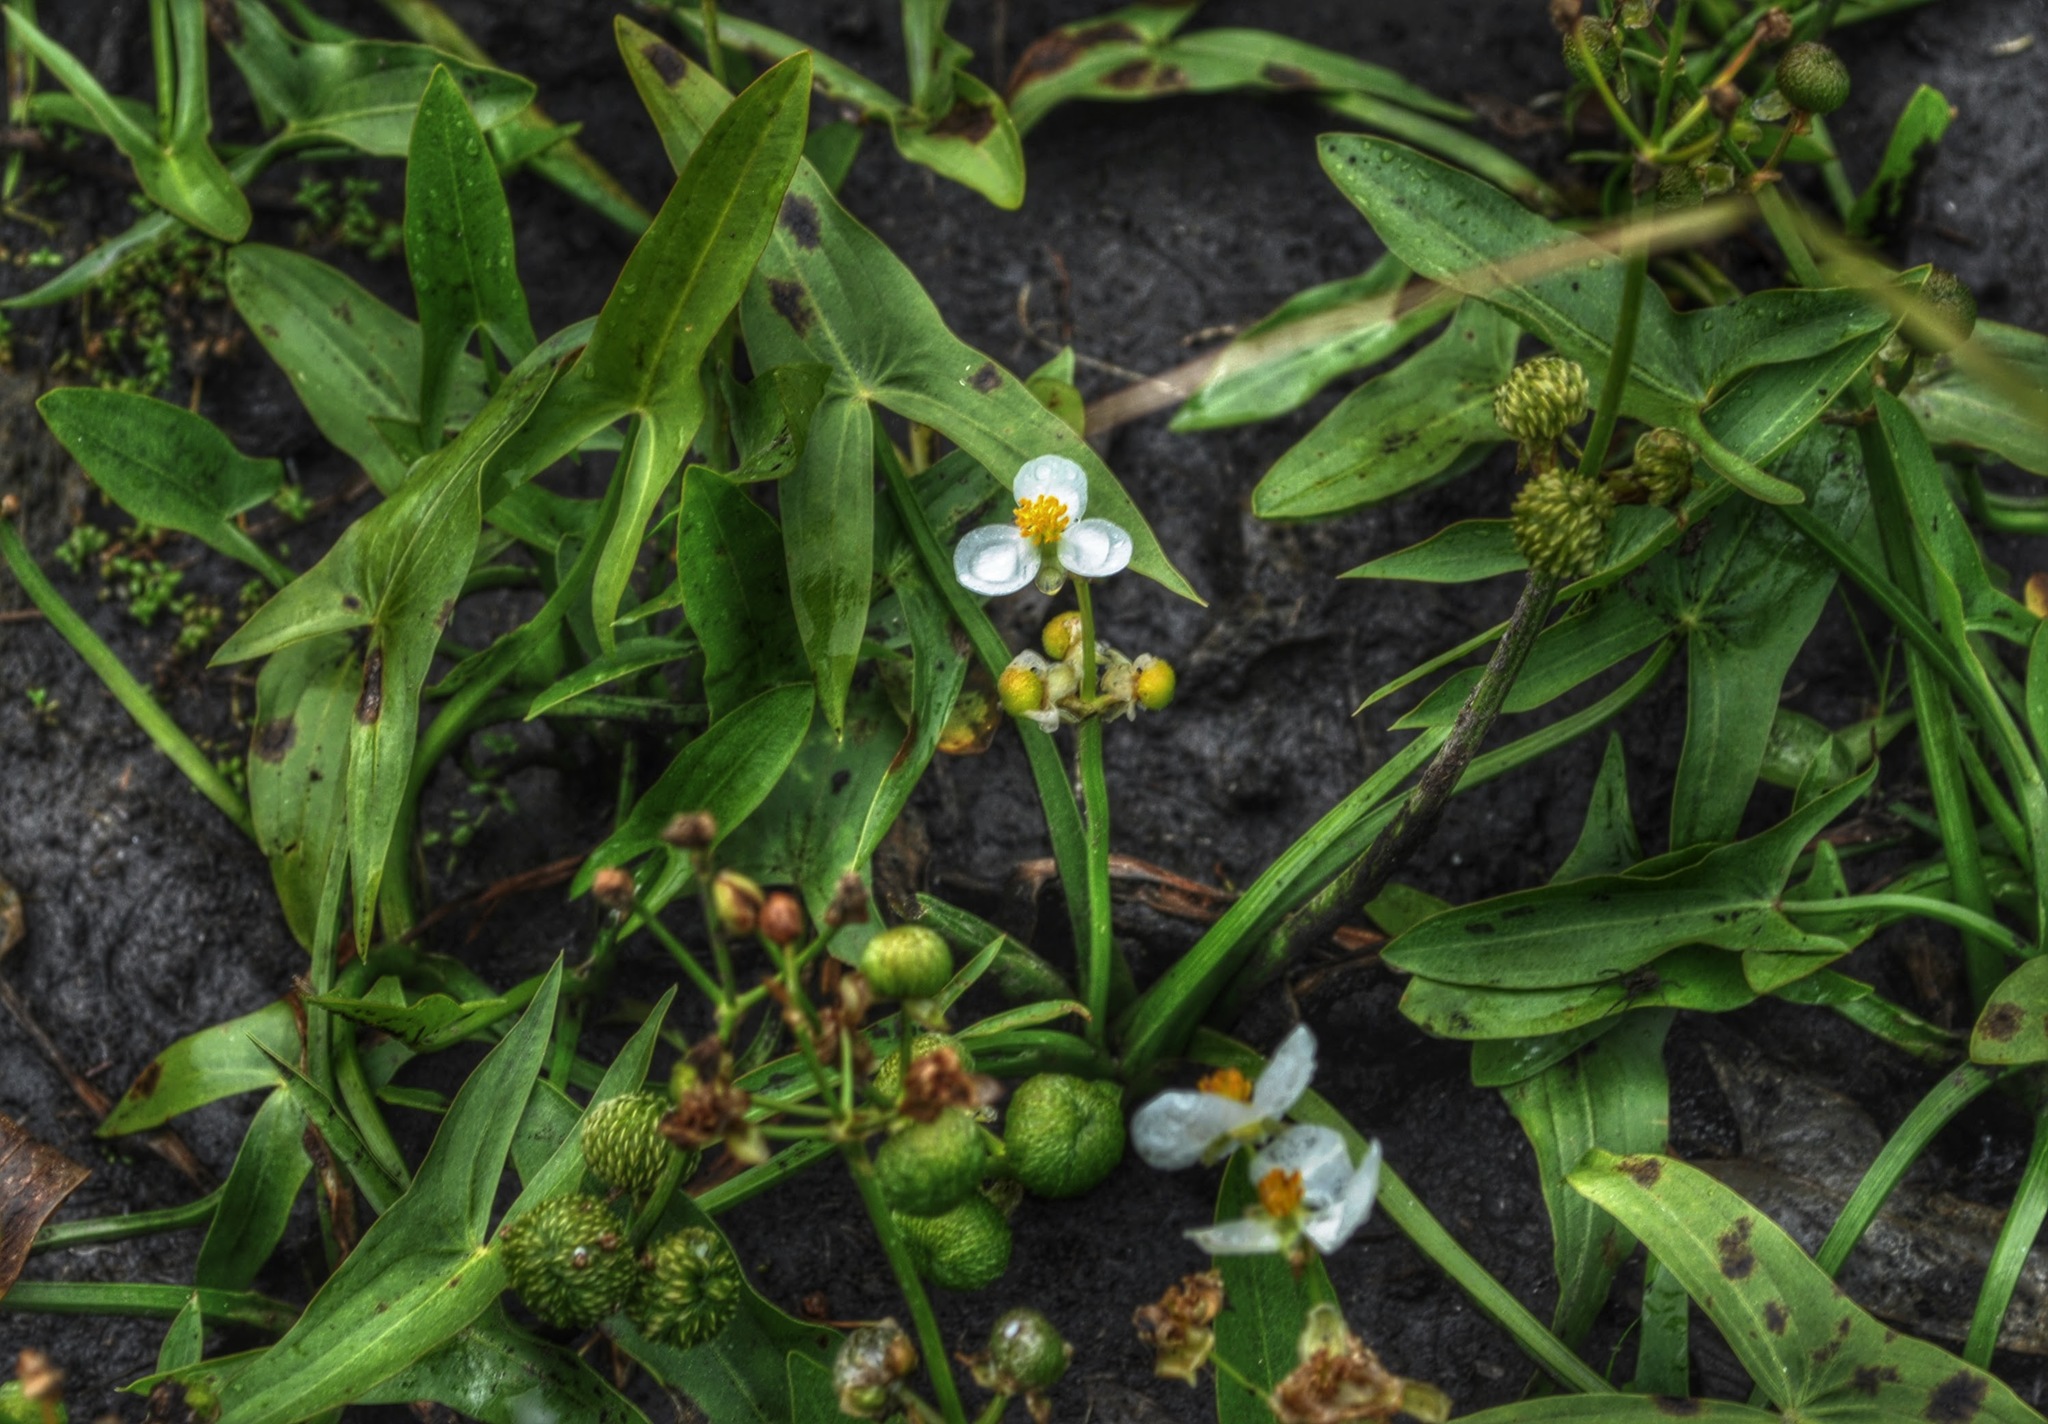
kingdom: Plantae
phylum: Tracheophyta
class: Liliopsida
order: Alismatales
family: Alismataceae
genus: Sagittaria
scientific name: Sagittaria latifolia
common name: Duck-potato
